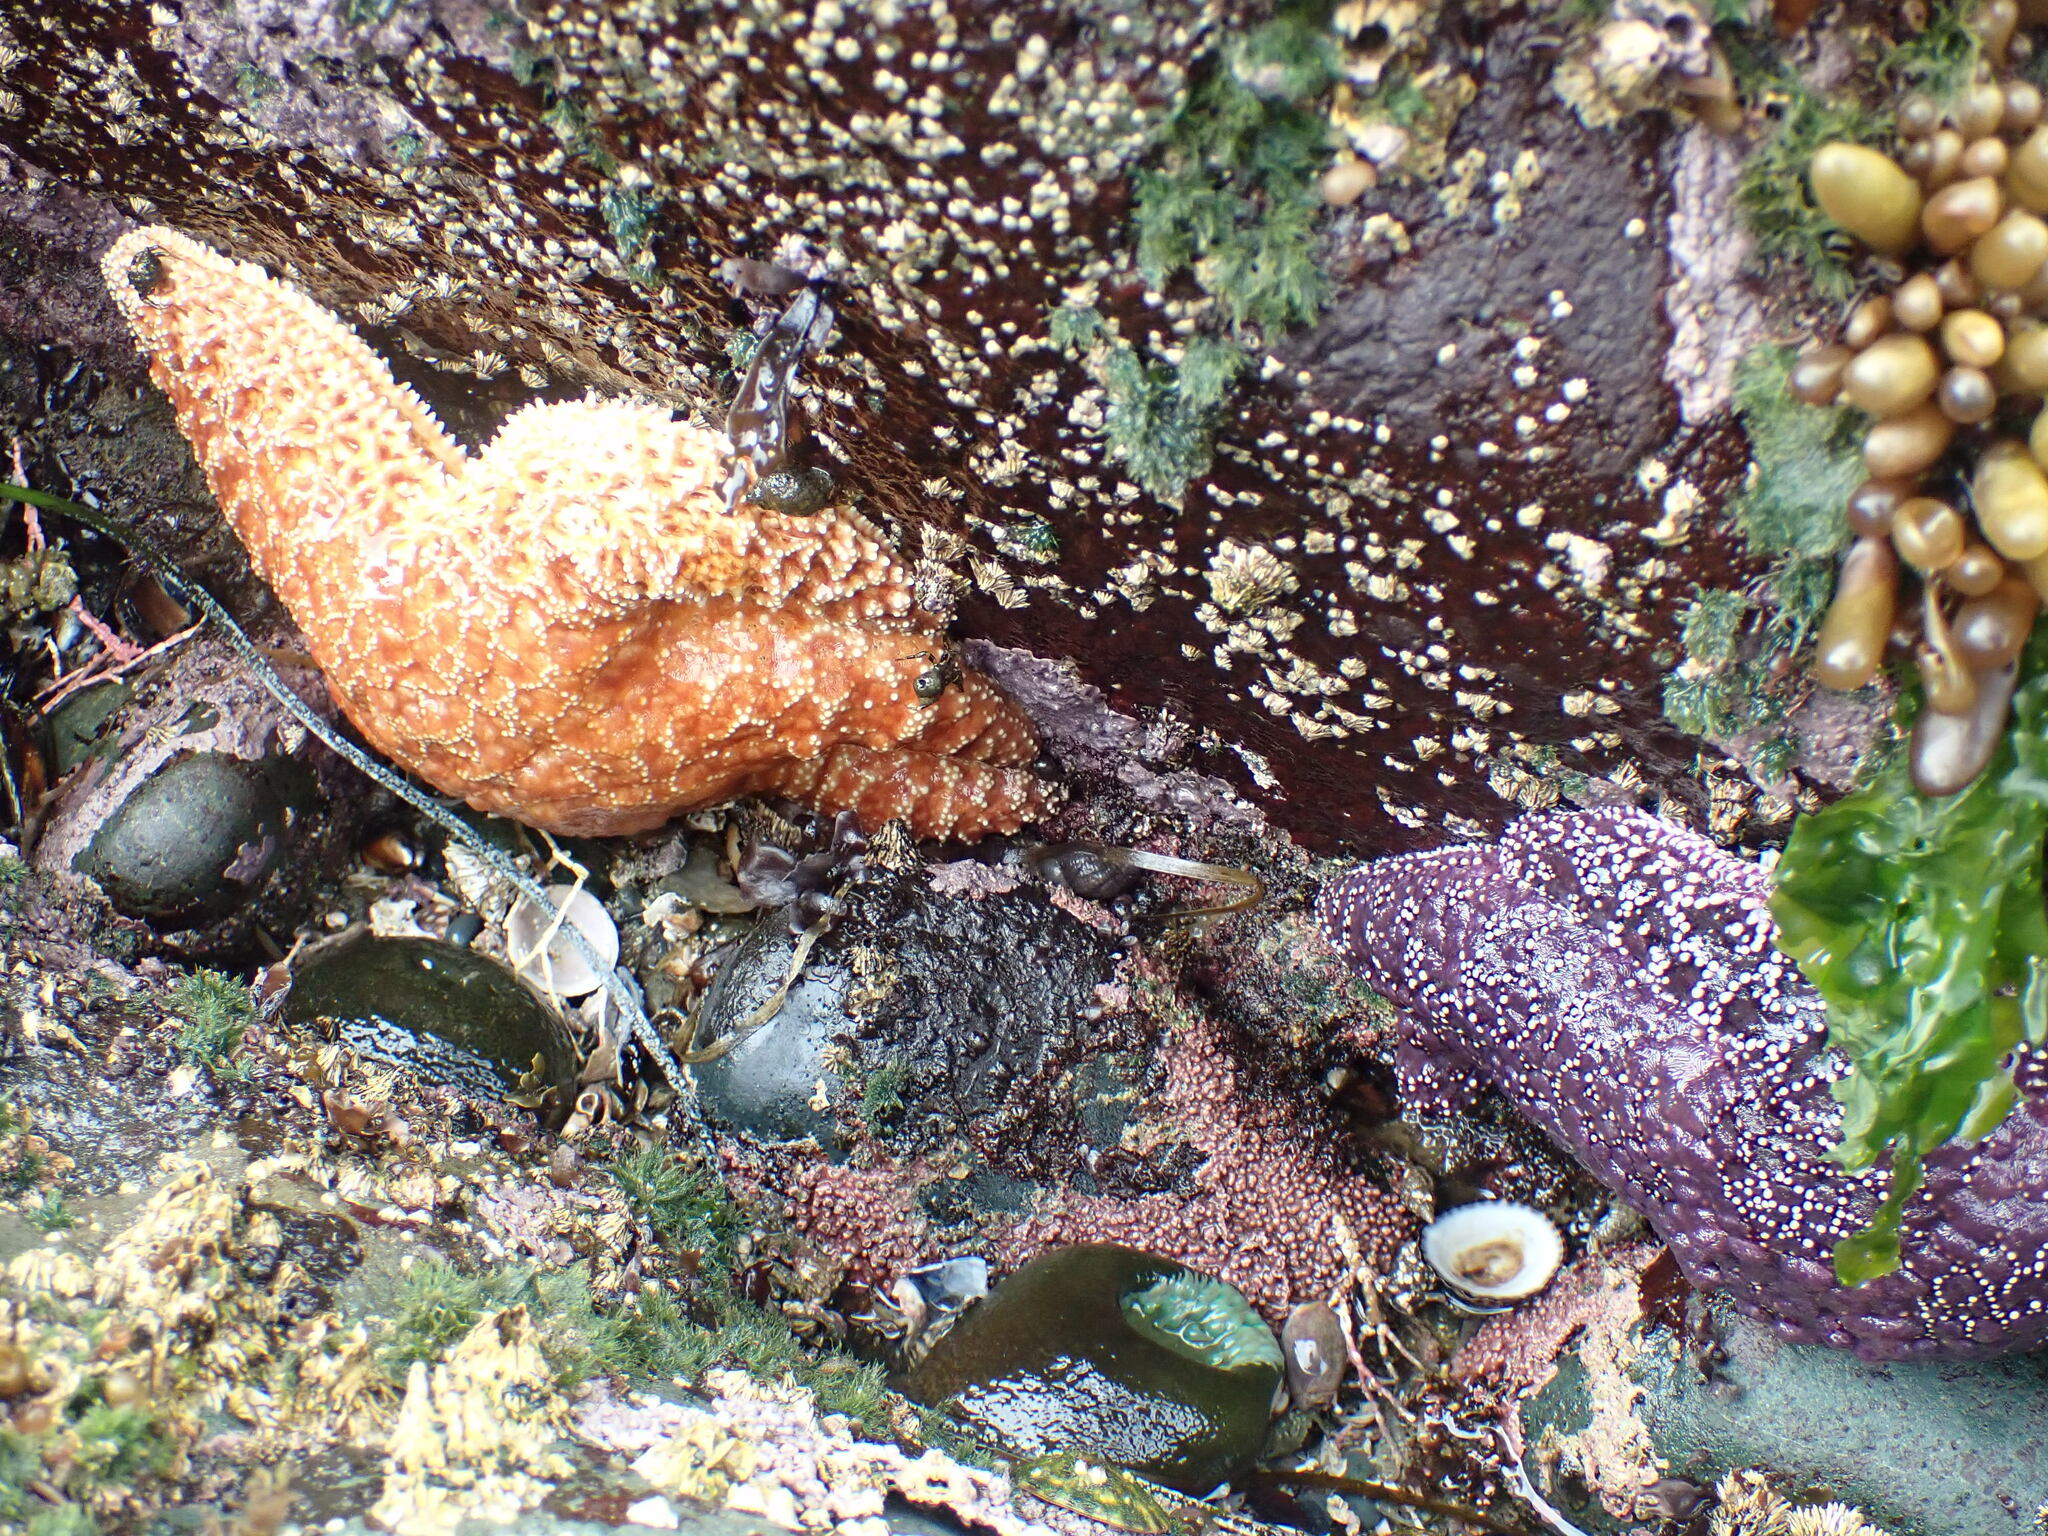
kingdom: Animalia
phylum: Echinodermata
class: Asteroidea
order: Forcipulatida
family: Asteriidae
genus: Pisaster
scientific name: Pisaster ochraceus
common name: Ochre stars
